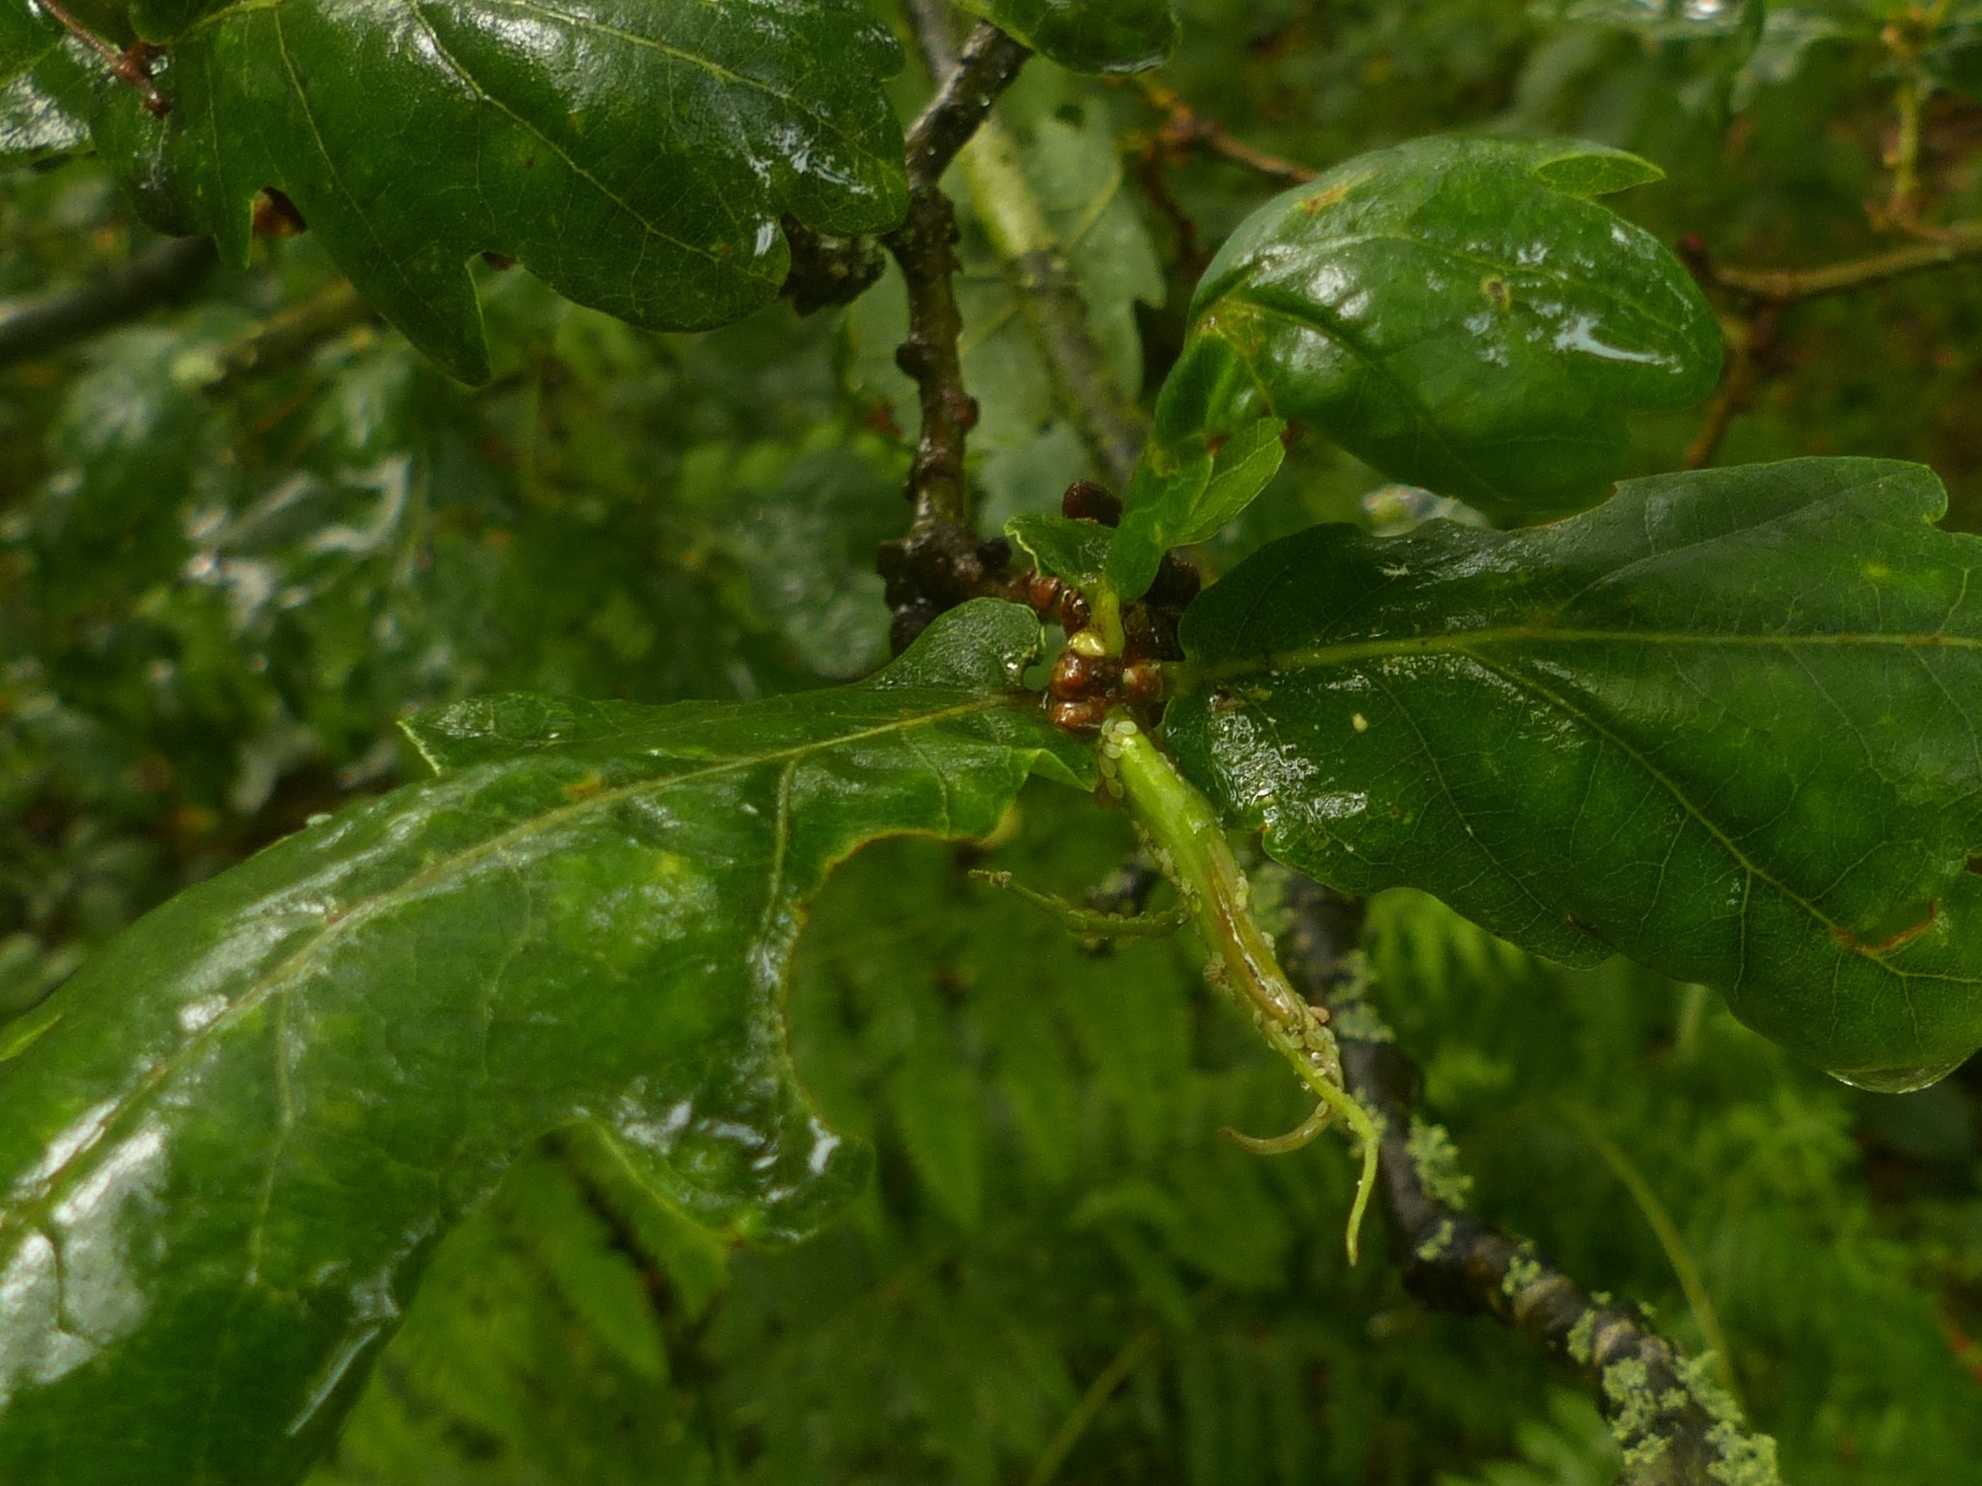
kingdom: Animalia
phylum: Arthropoda
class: Insecta
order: Hymenoptera
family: Cynipidae
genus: Andricus
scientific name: Andricus aries
